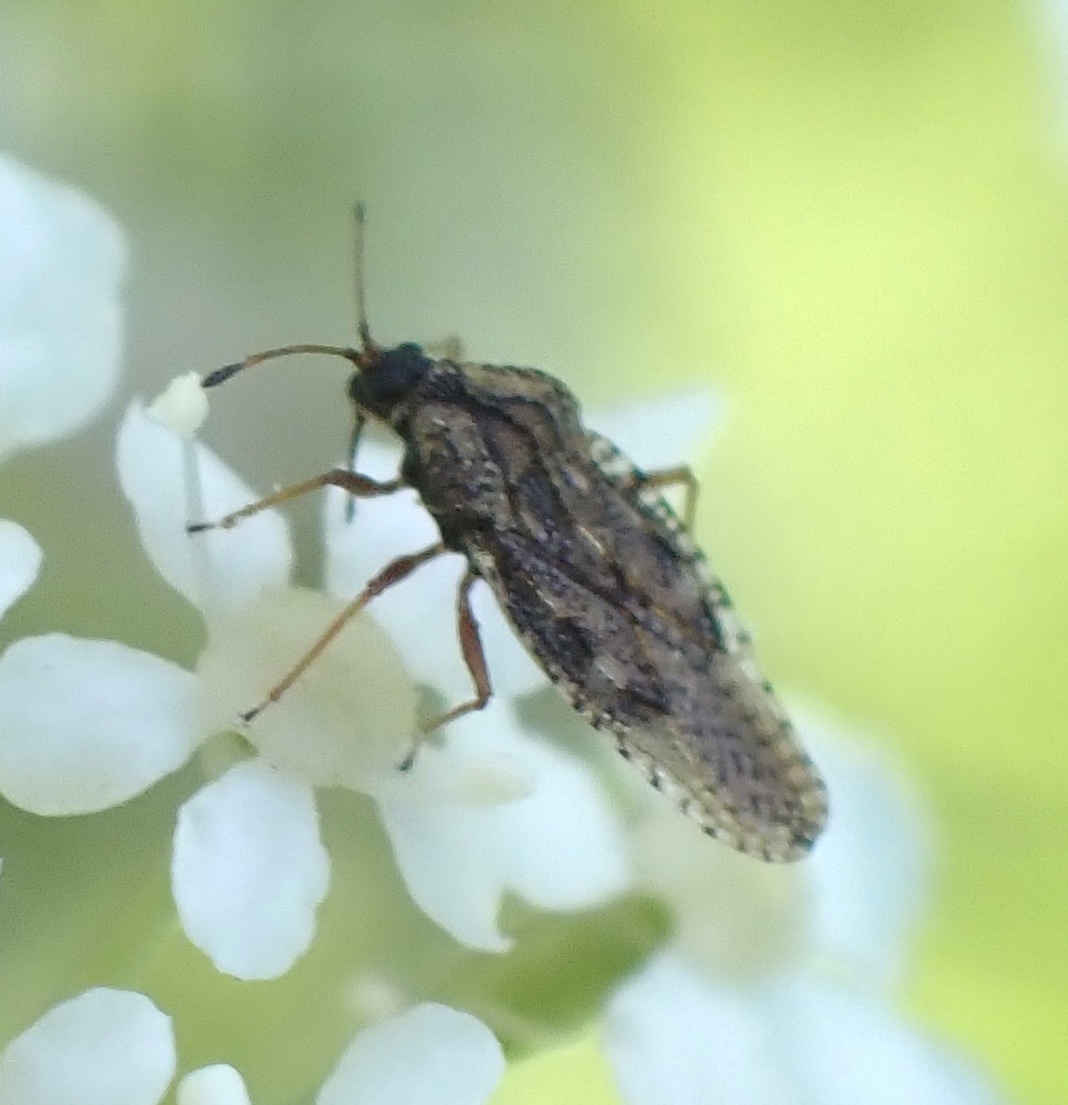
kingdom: Animalia
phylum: Arthropoda
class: Insecta
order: Hemiptera
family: Tingidae
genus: Dictyla
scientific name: Dictyla convergens
